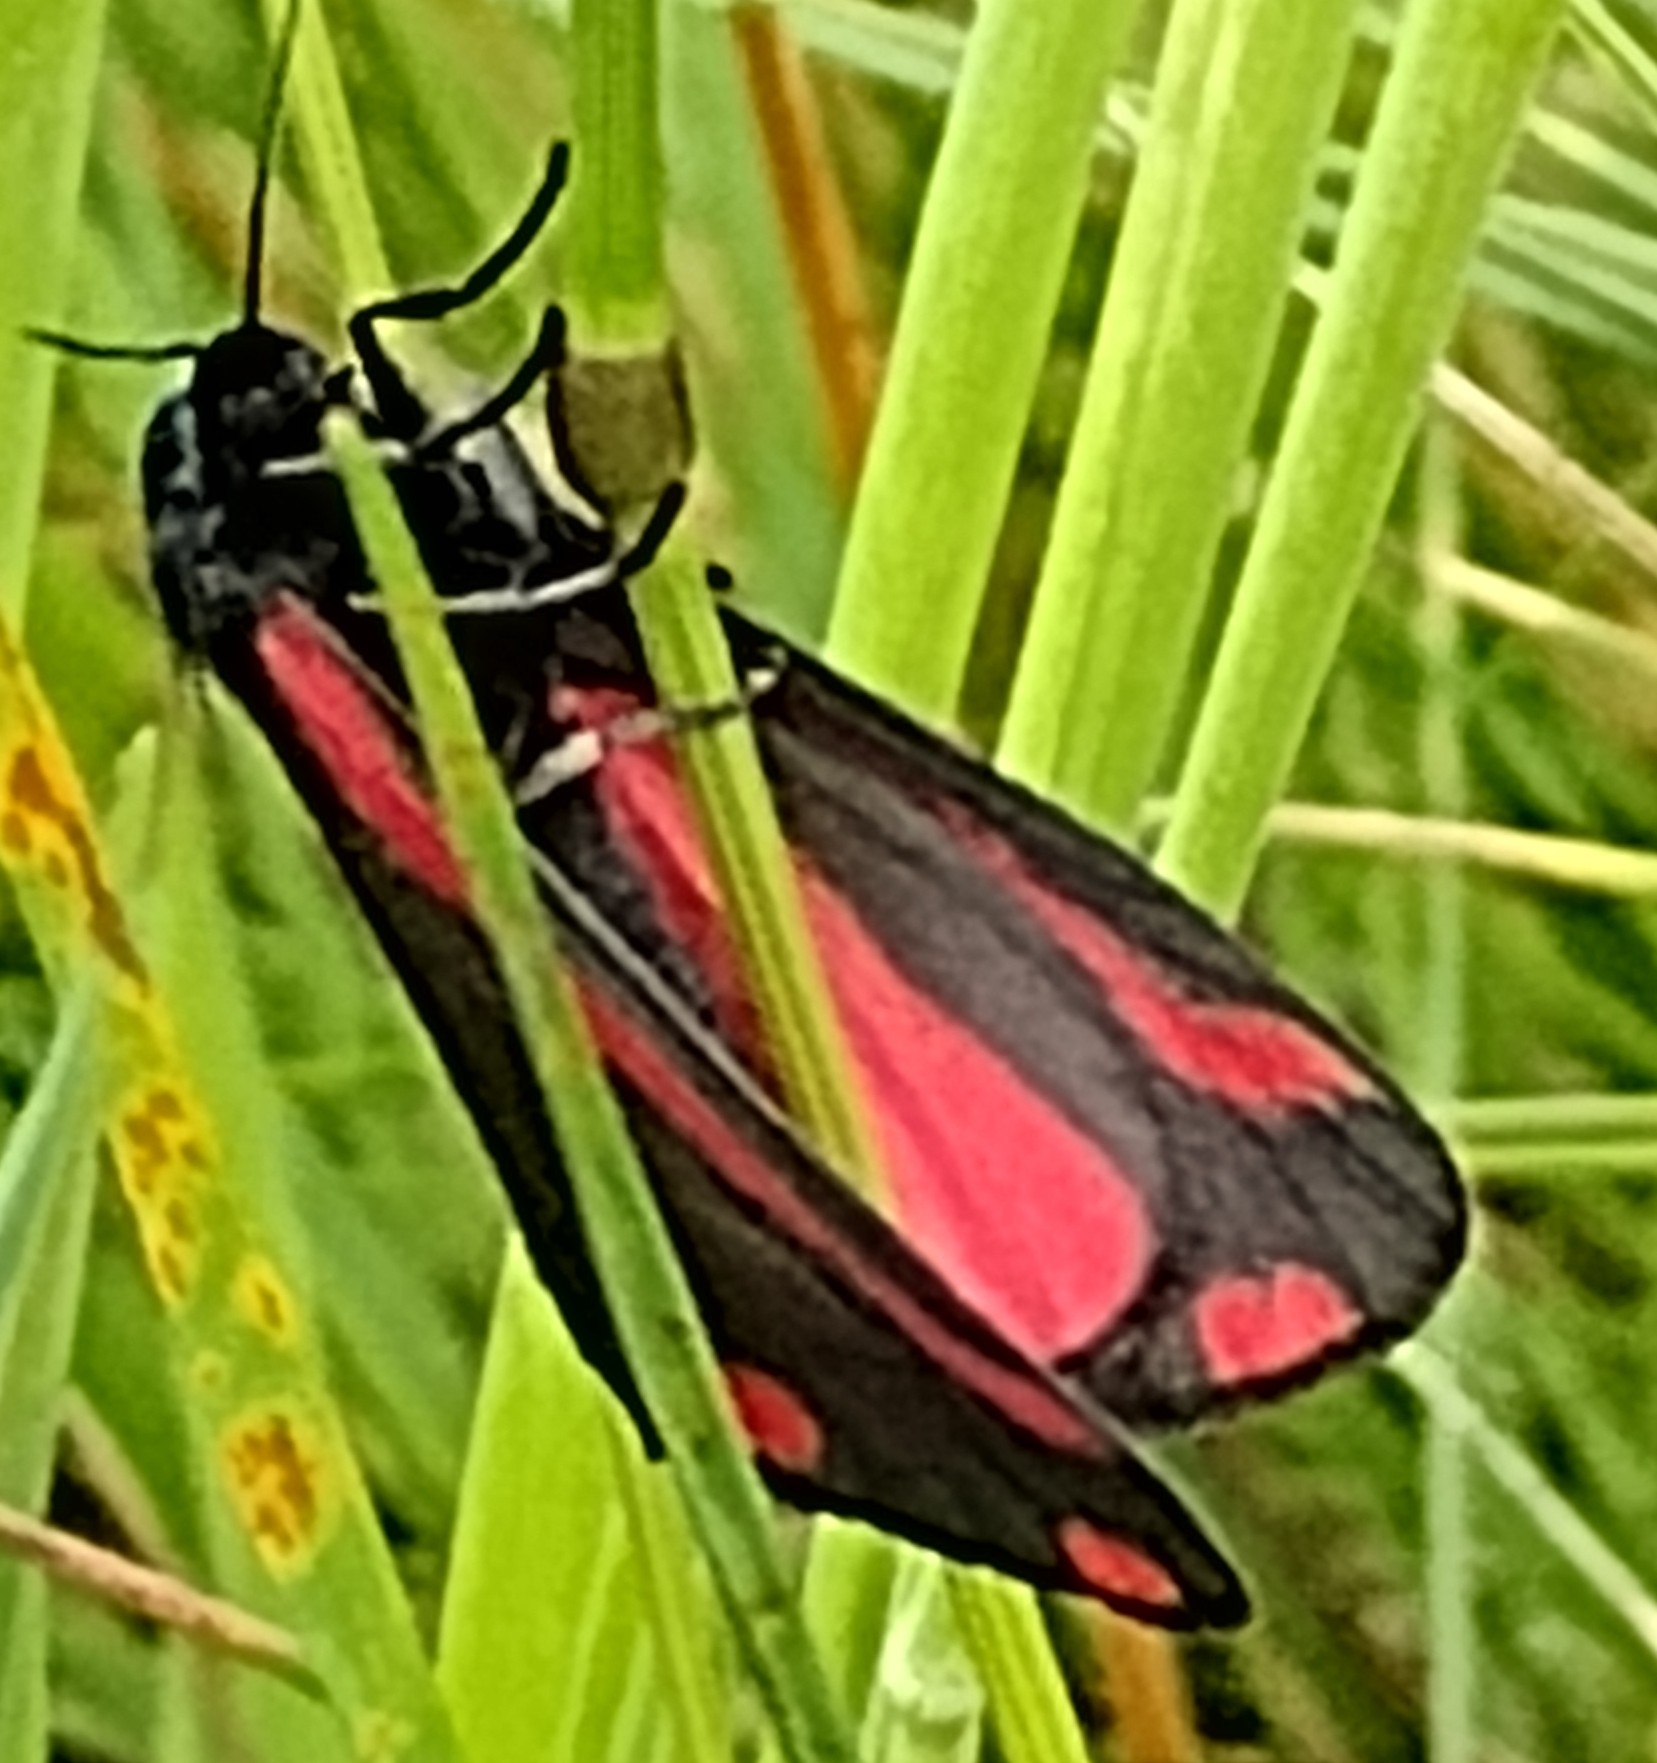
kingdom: Animalia
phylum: Arthropoda
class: Insecta
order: Lepidoptera
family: Erebidae
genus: Tyria
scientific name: Tyria jacobaeae
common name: Cinnabar
